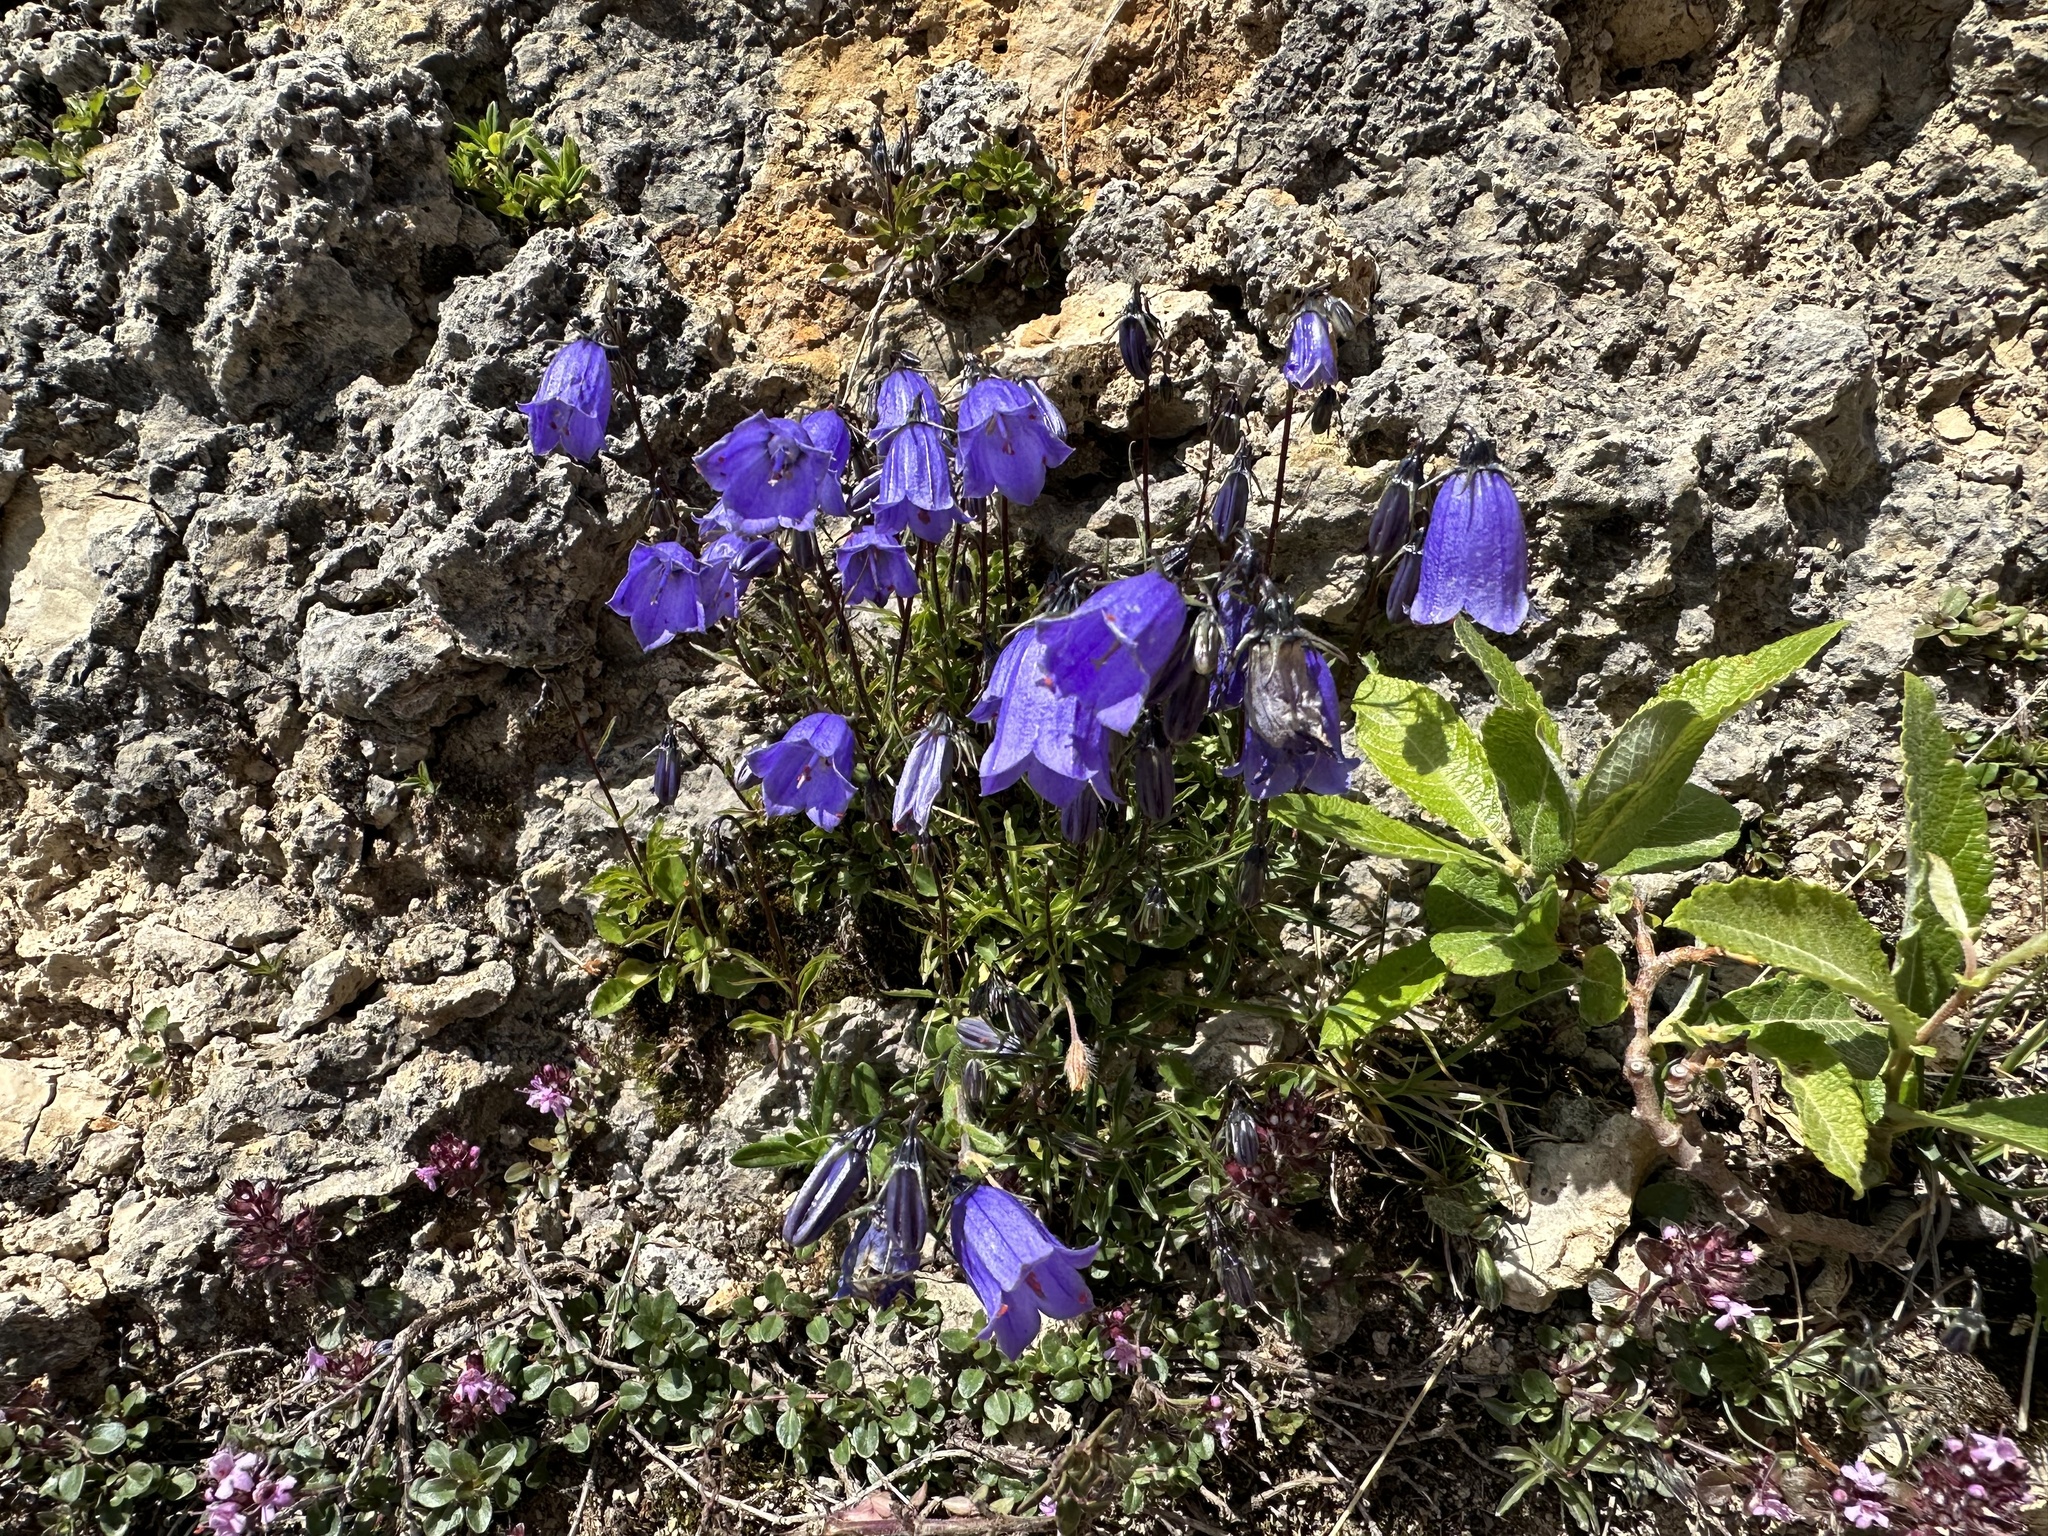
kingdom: Plantae
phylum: Tracheophyta
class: Magnoliopsida
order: Asterales
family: Campanulaceae
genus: Campanula
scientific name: Campanula cochleariifolia
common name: Fairies'-thimbles
